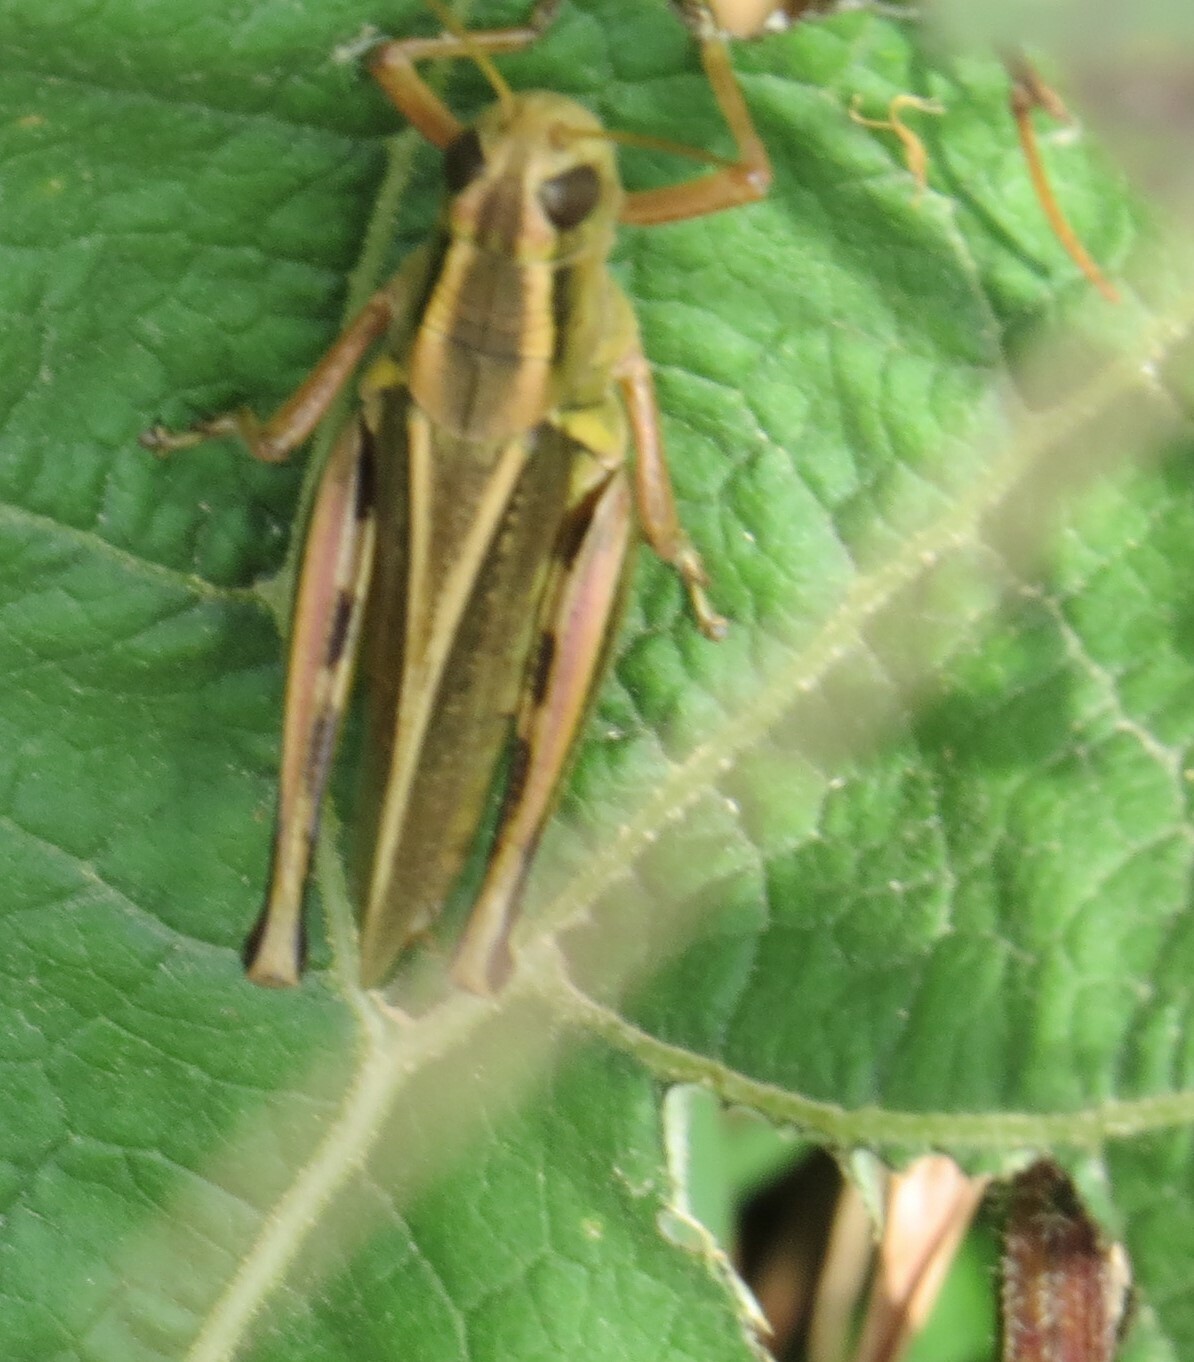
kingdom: Animalia
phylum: Arthropoda
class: Insecta
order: Orthoptera
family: Acrididae
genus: Melanoplus
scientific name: Melanoplus bivittatus
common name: Two-striped grasshopper
